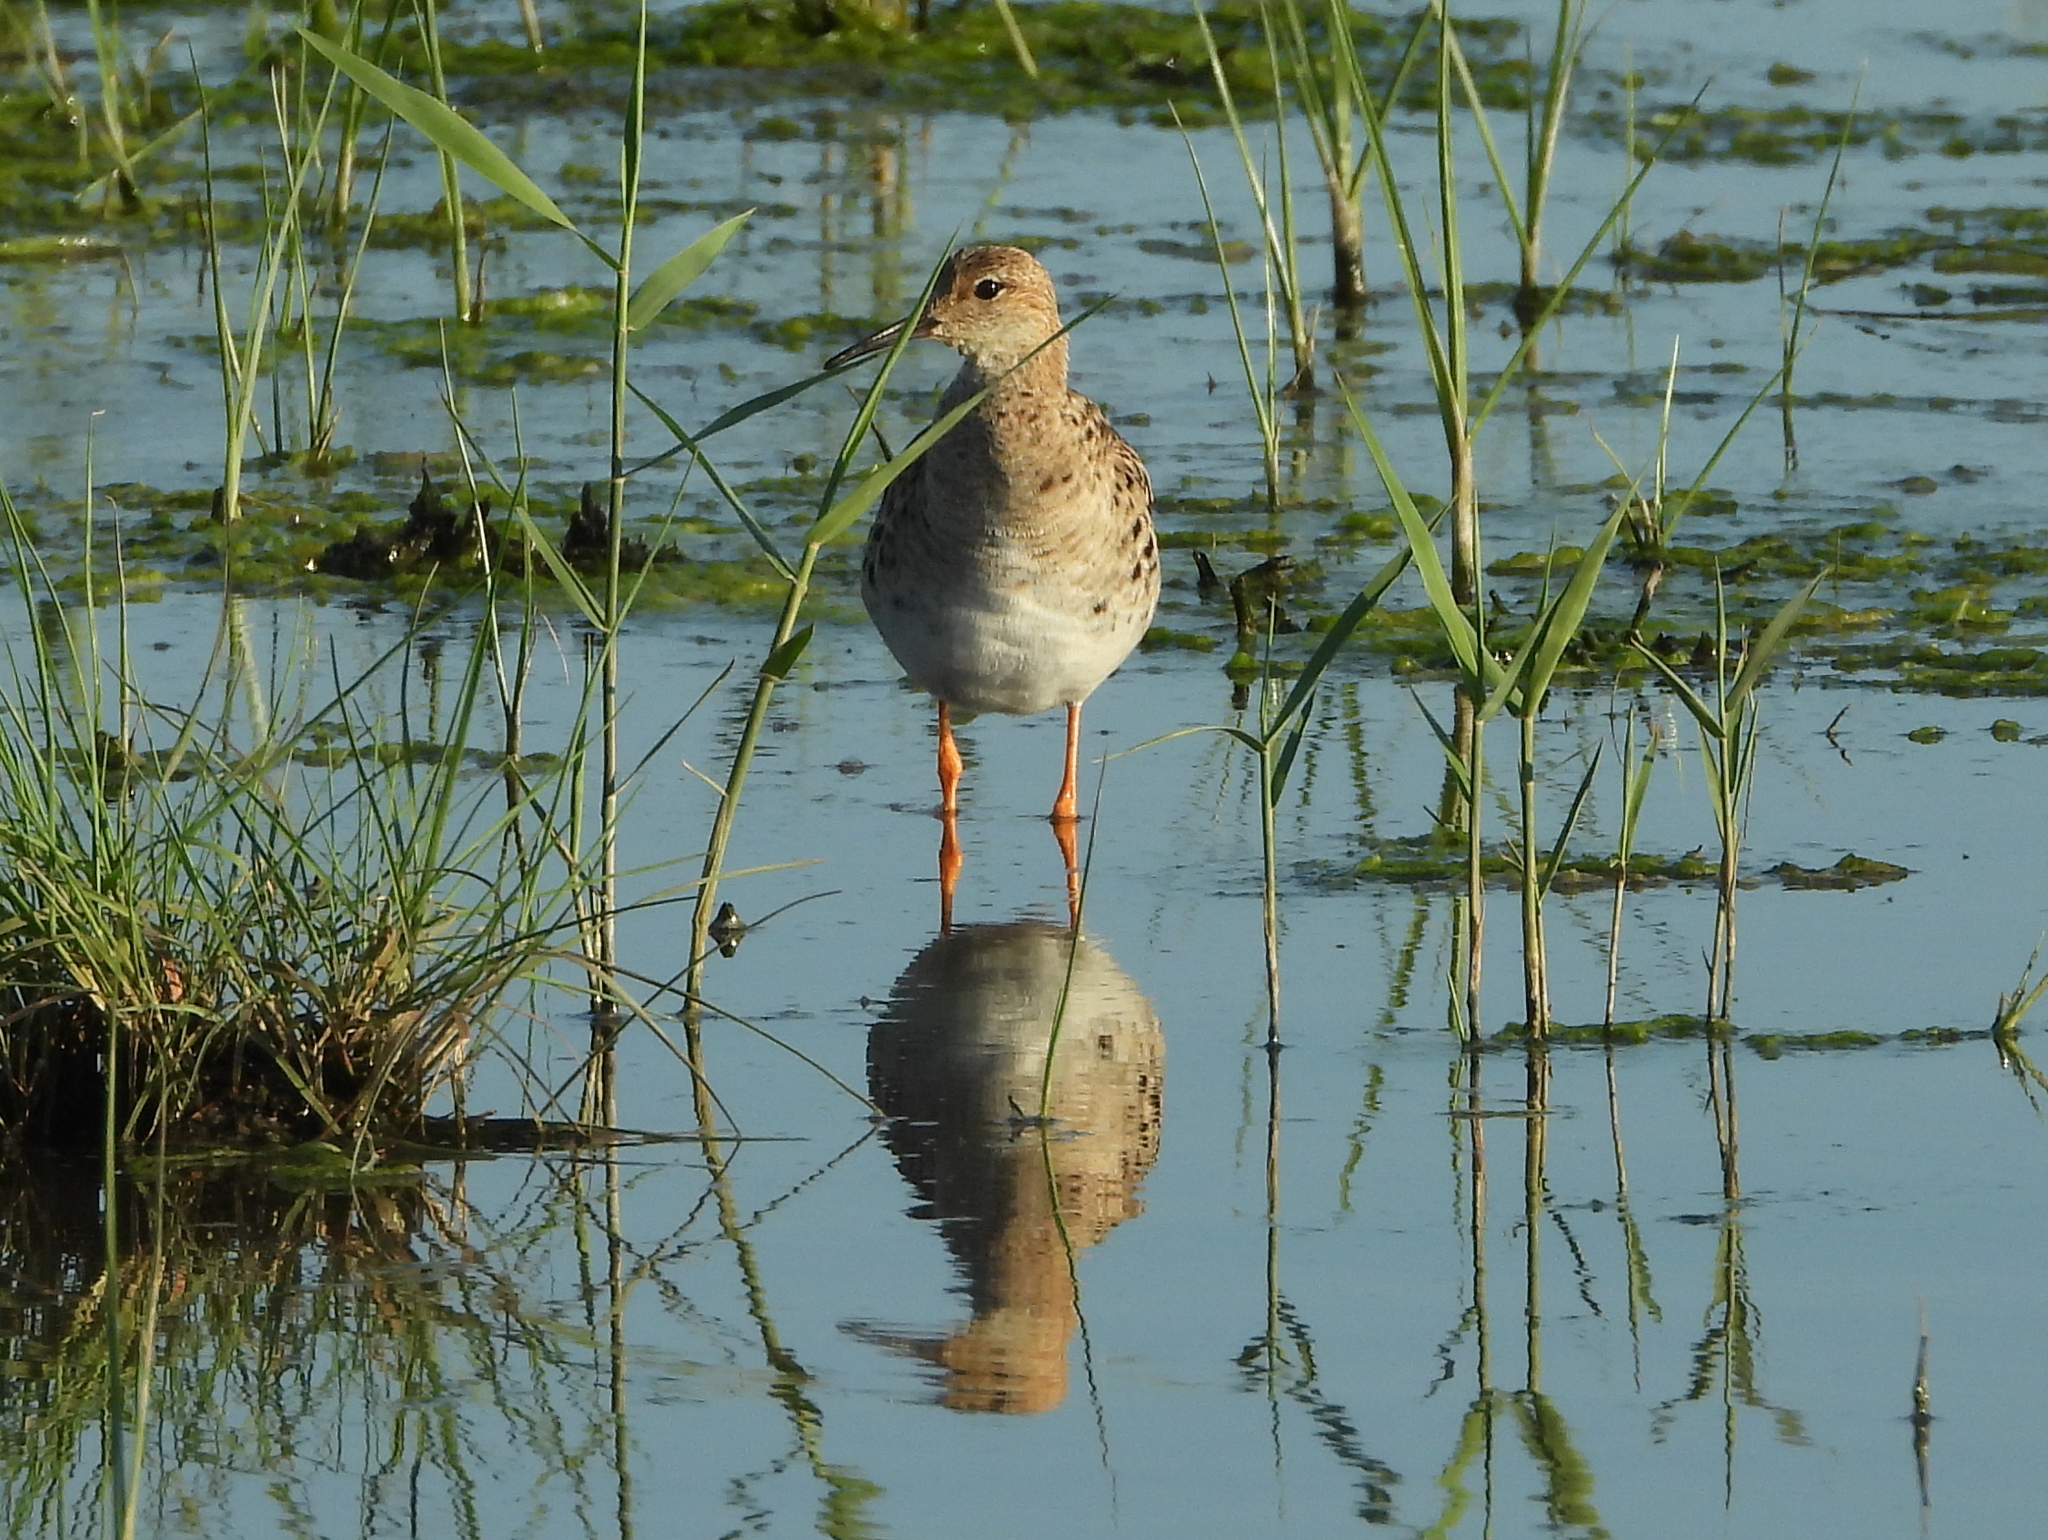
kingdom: Animalia
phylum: Chordata
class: Aves
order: Charadriiformes
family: Scolopacidae
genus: Calidris
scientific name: Calidris pugnax
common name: Ruff
